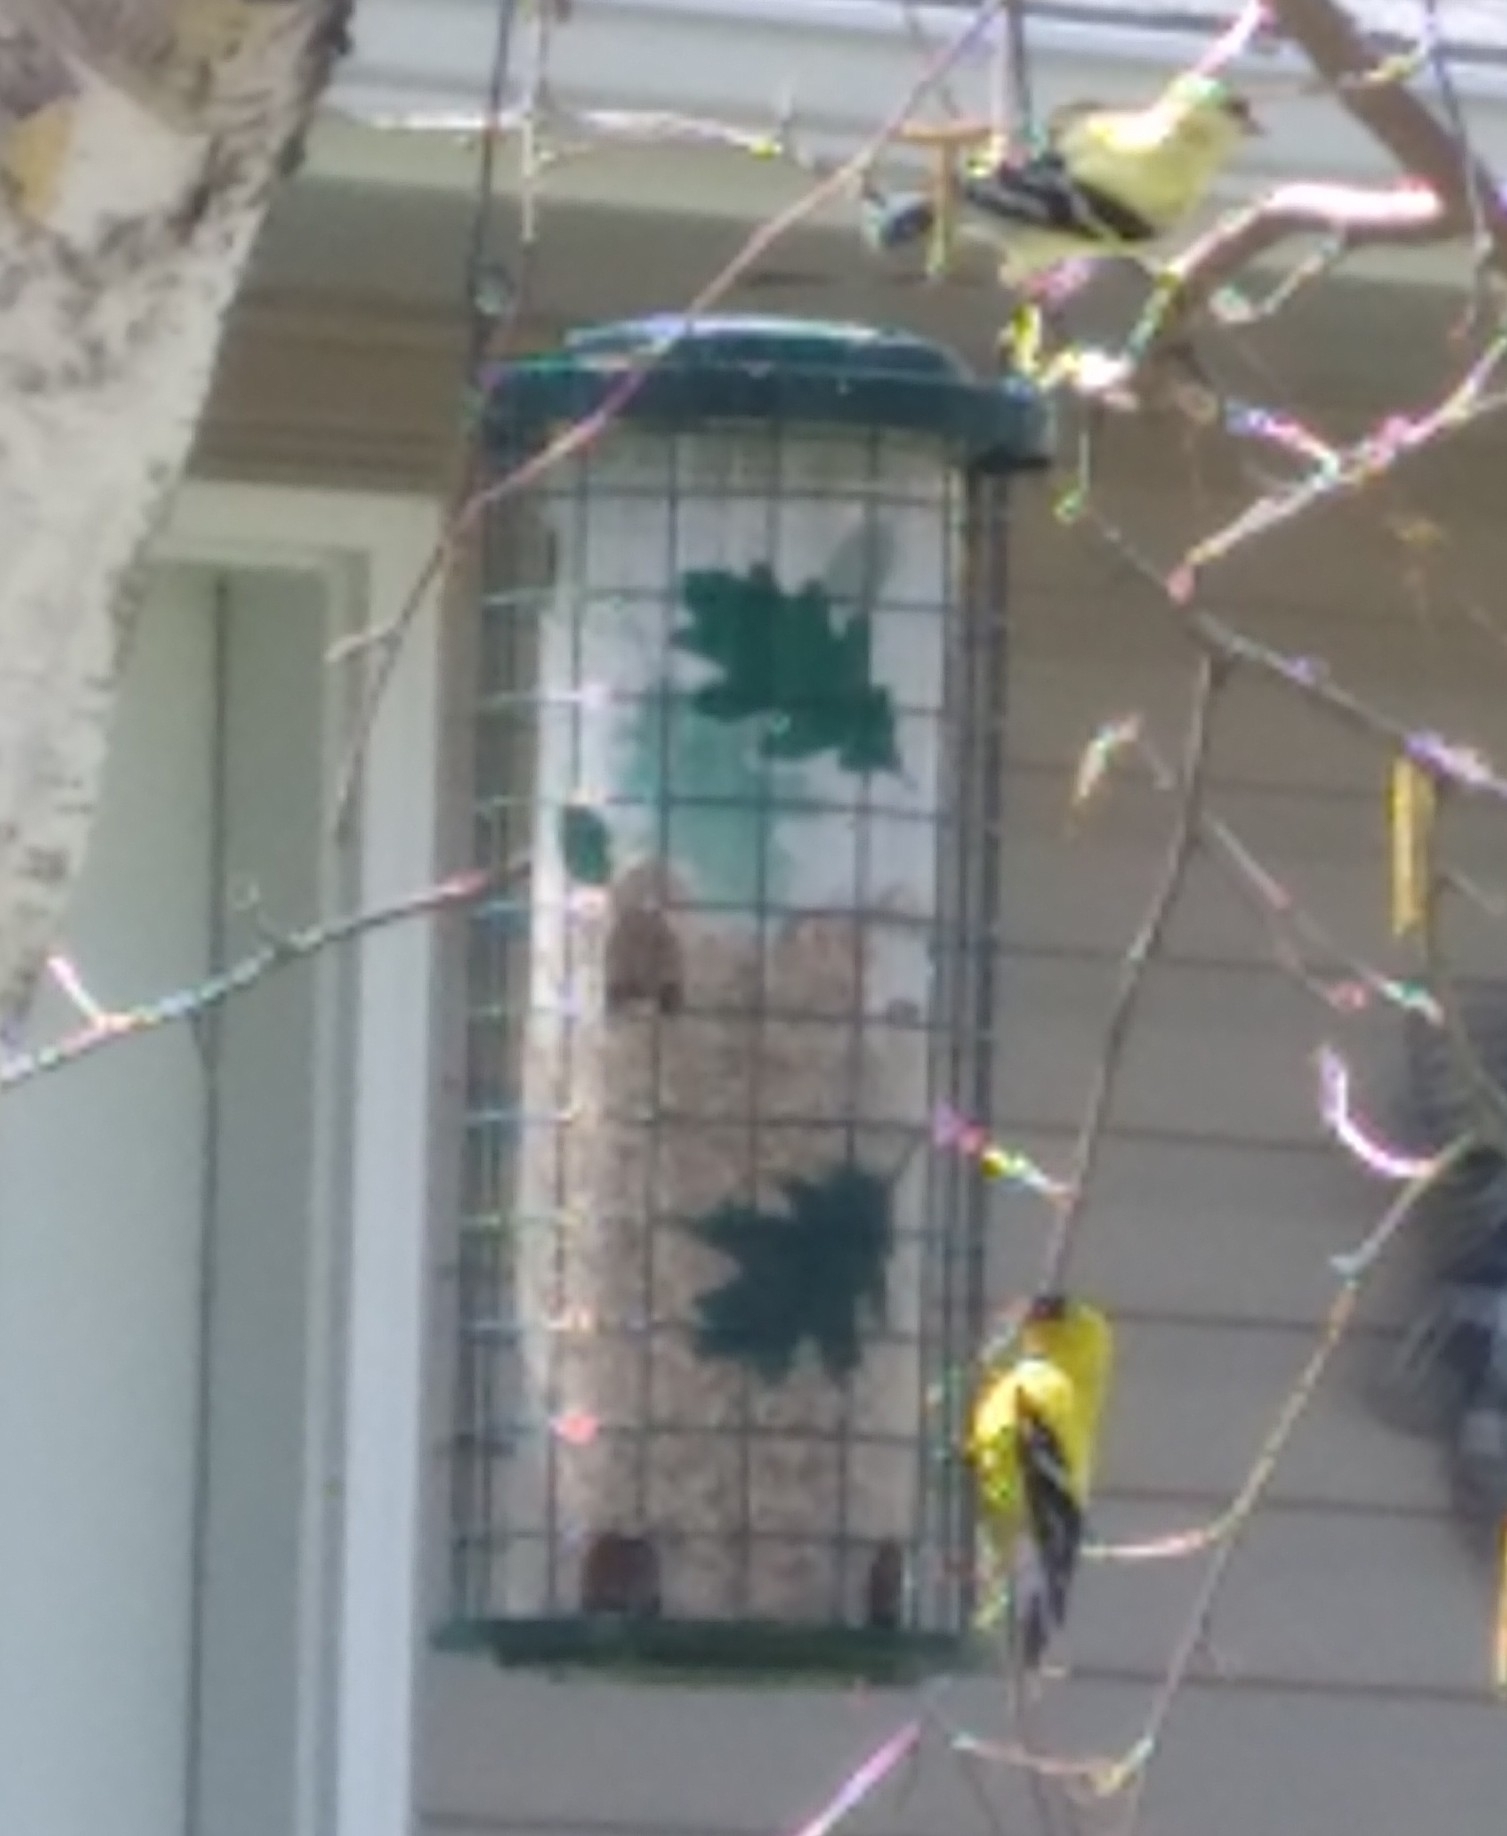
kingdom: Animalia
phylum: Chordata
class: Aves
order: Passeriformes
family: Fringillidae
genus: Spinus
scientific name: Spinus tristis
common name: American goldfinch
